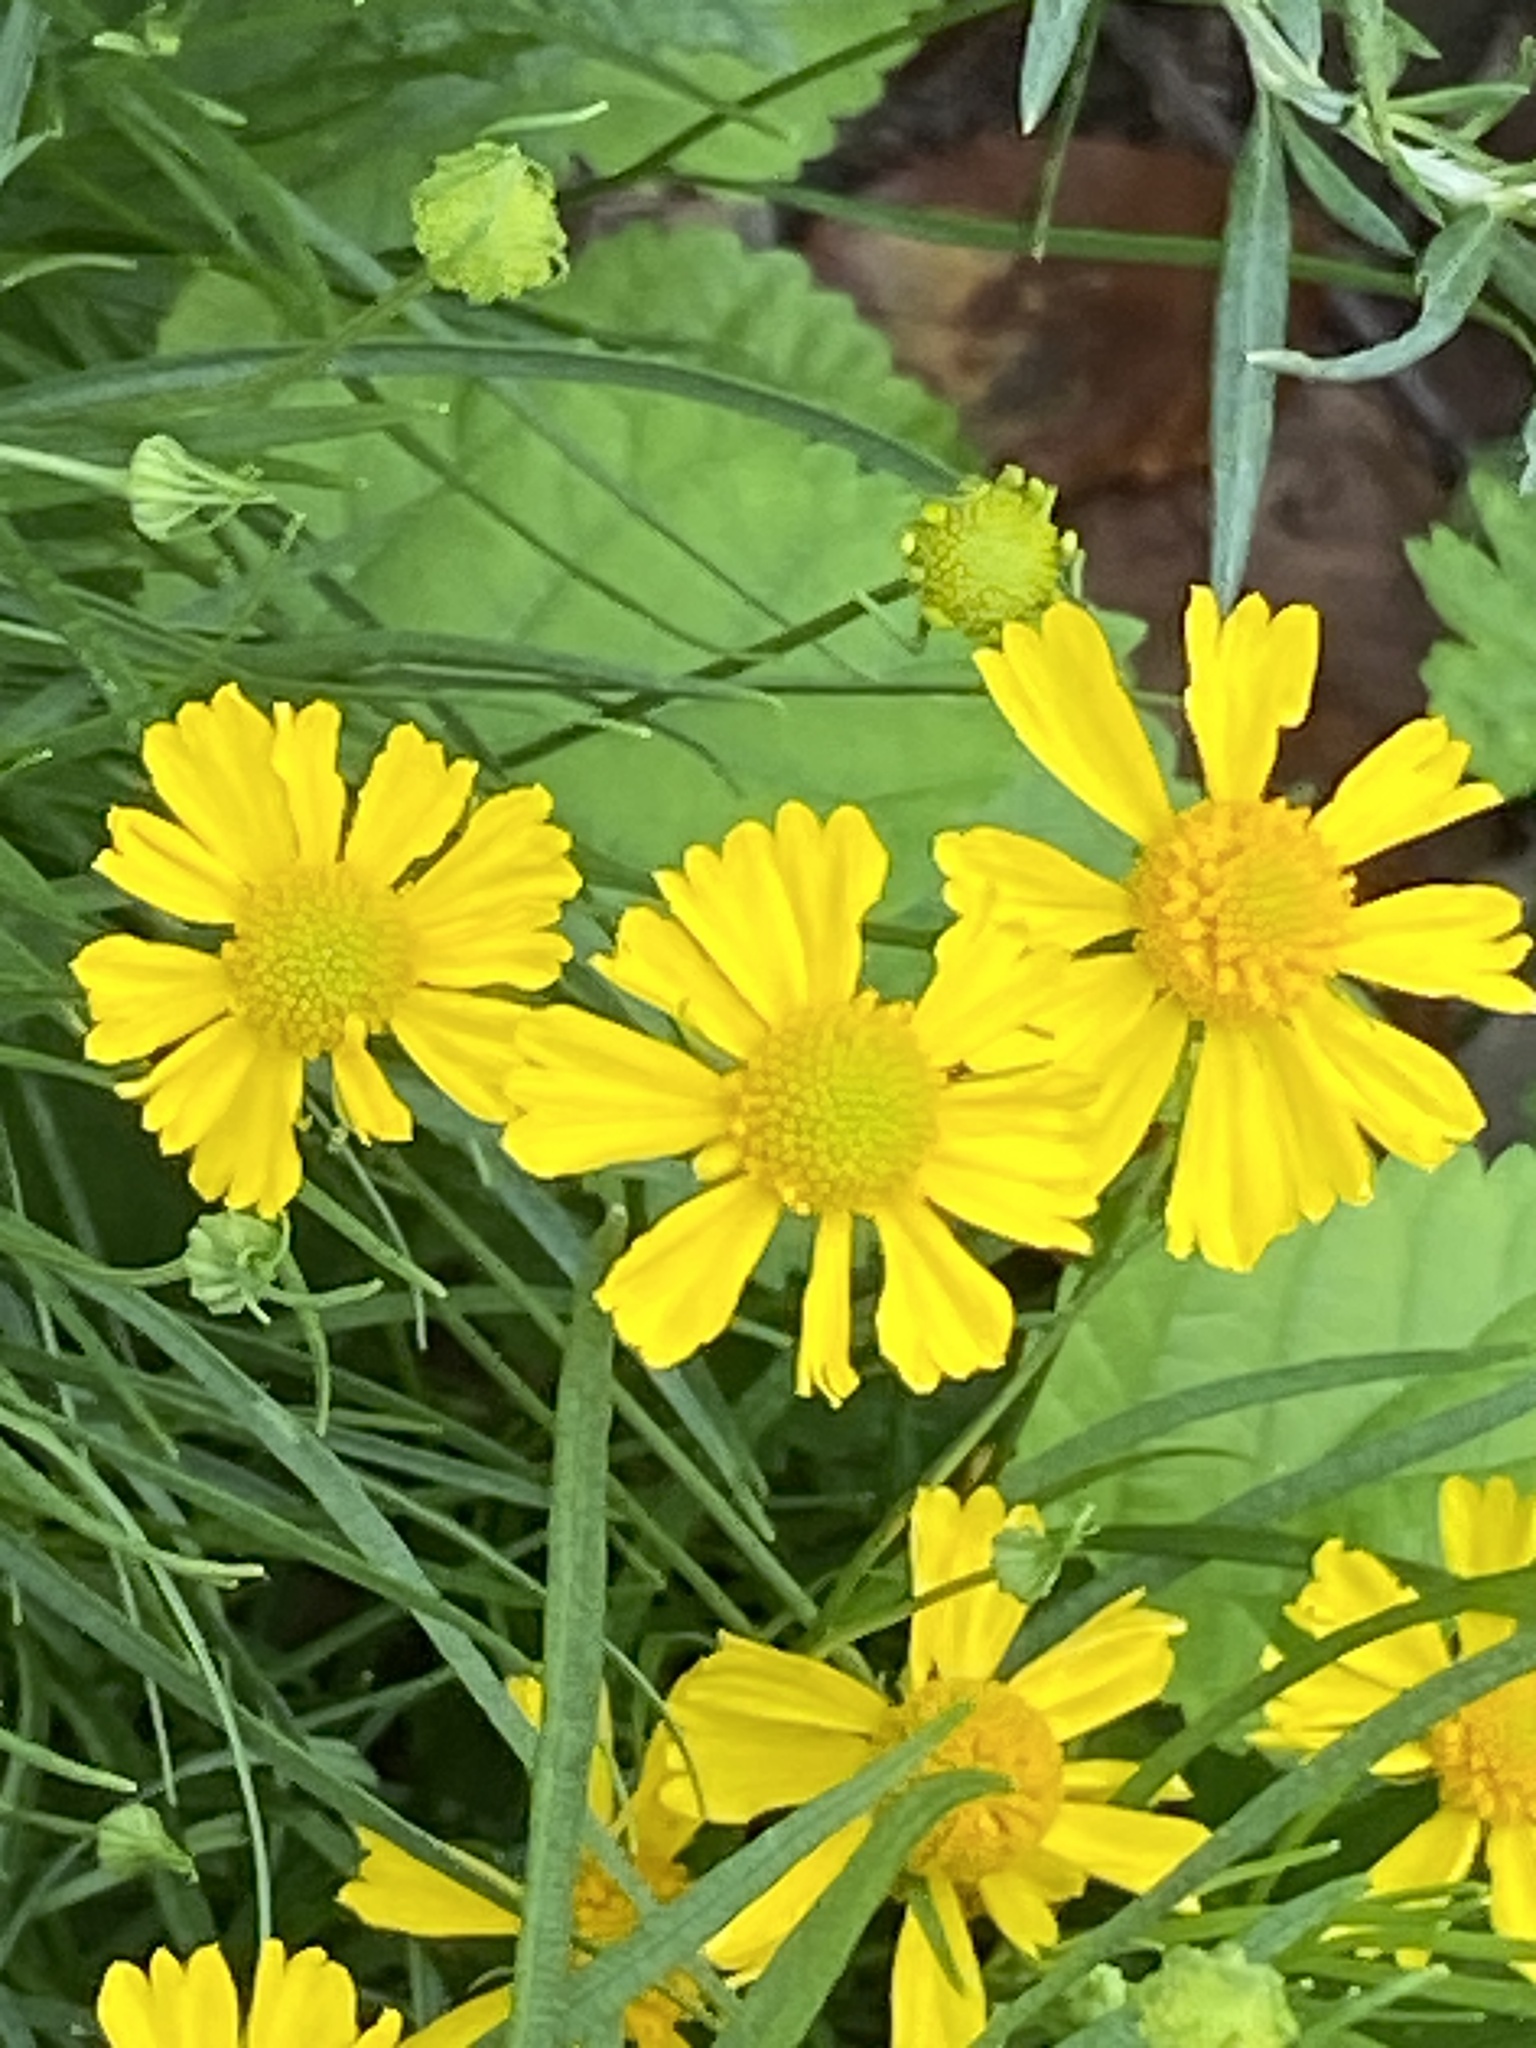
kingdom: Plantae
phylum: Tracheophyta
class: Magnoliopsida
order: Asterales
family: Asteraceae
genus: Helenium
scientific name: Helenium autumnale
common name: Sneezeweed
